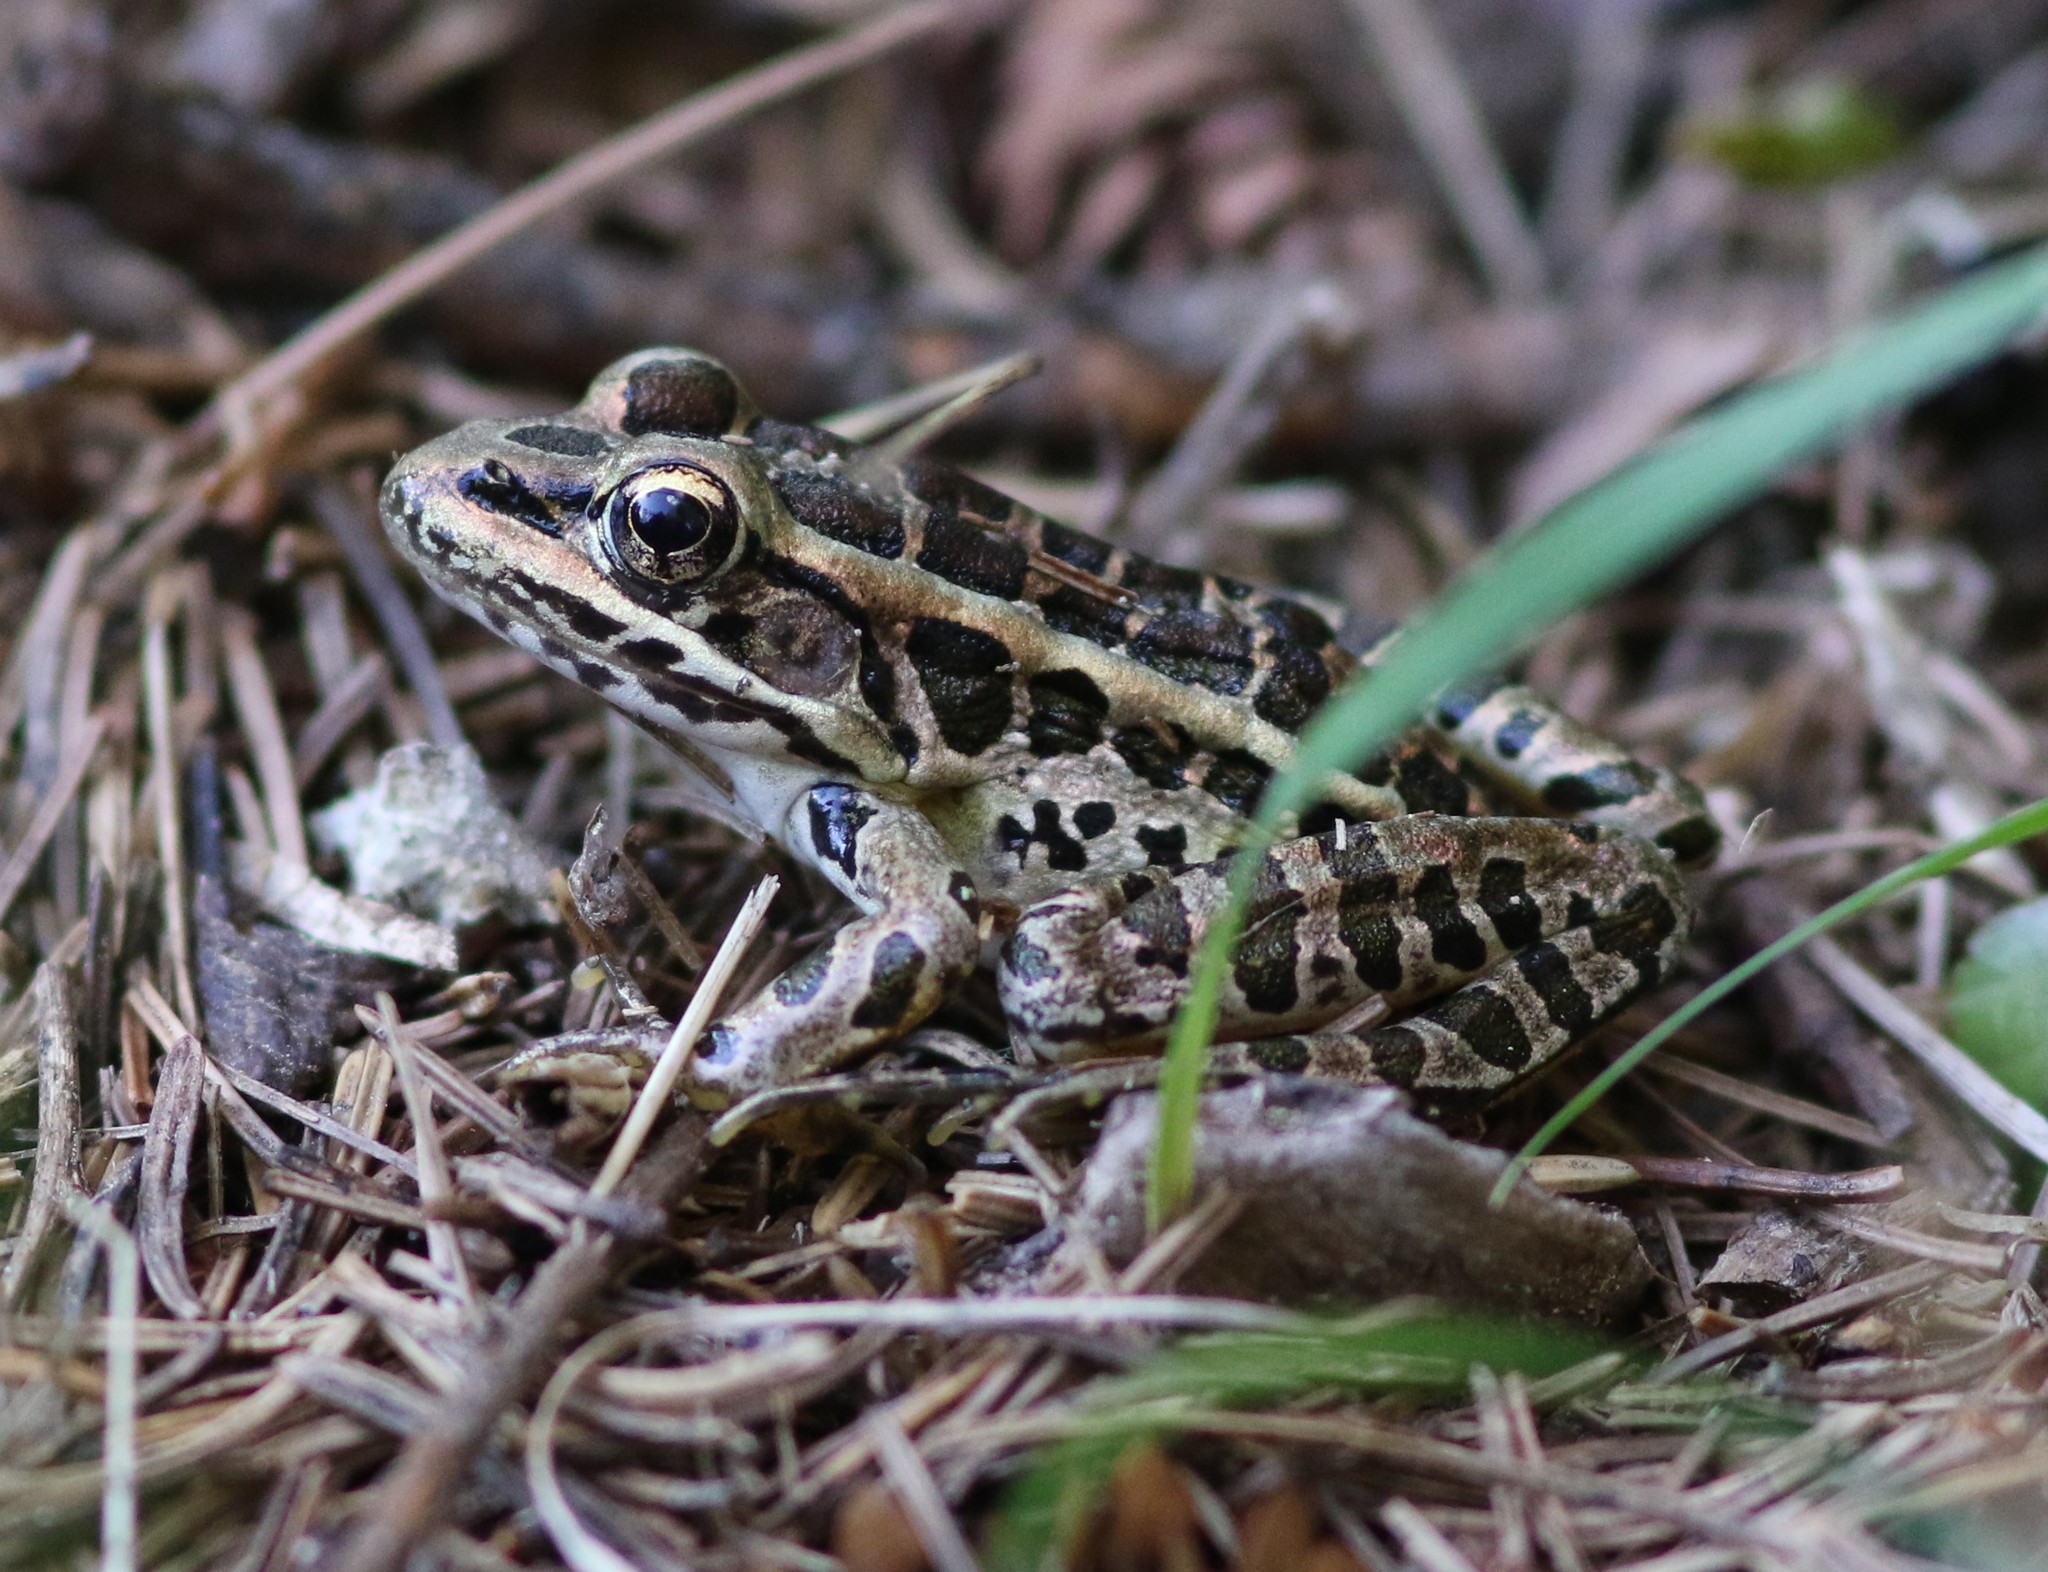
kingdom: Animalia
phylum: Chordata
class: Amphibia
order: Anura
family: Ranidae
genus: Lithobates
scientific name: Lithobates palustris
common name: Pickerel frog
